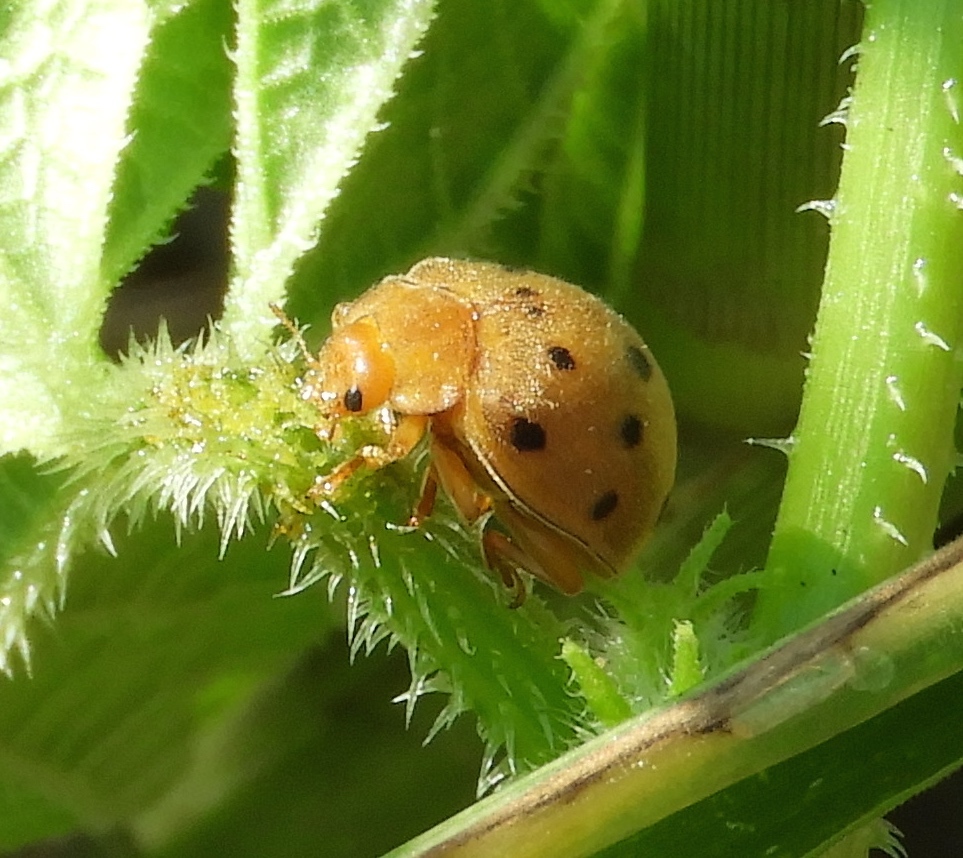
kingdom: Animalia
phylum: Arthropoda
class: Insecta
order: Coleoptera
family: Coccinellidae
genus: Epilachna
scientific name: Epilachna tredecimnotata
